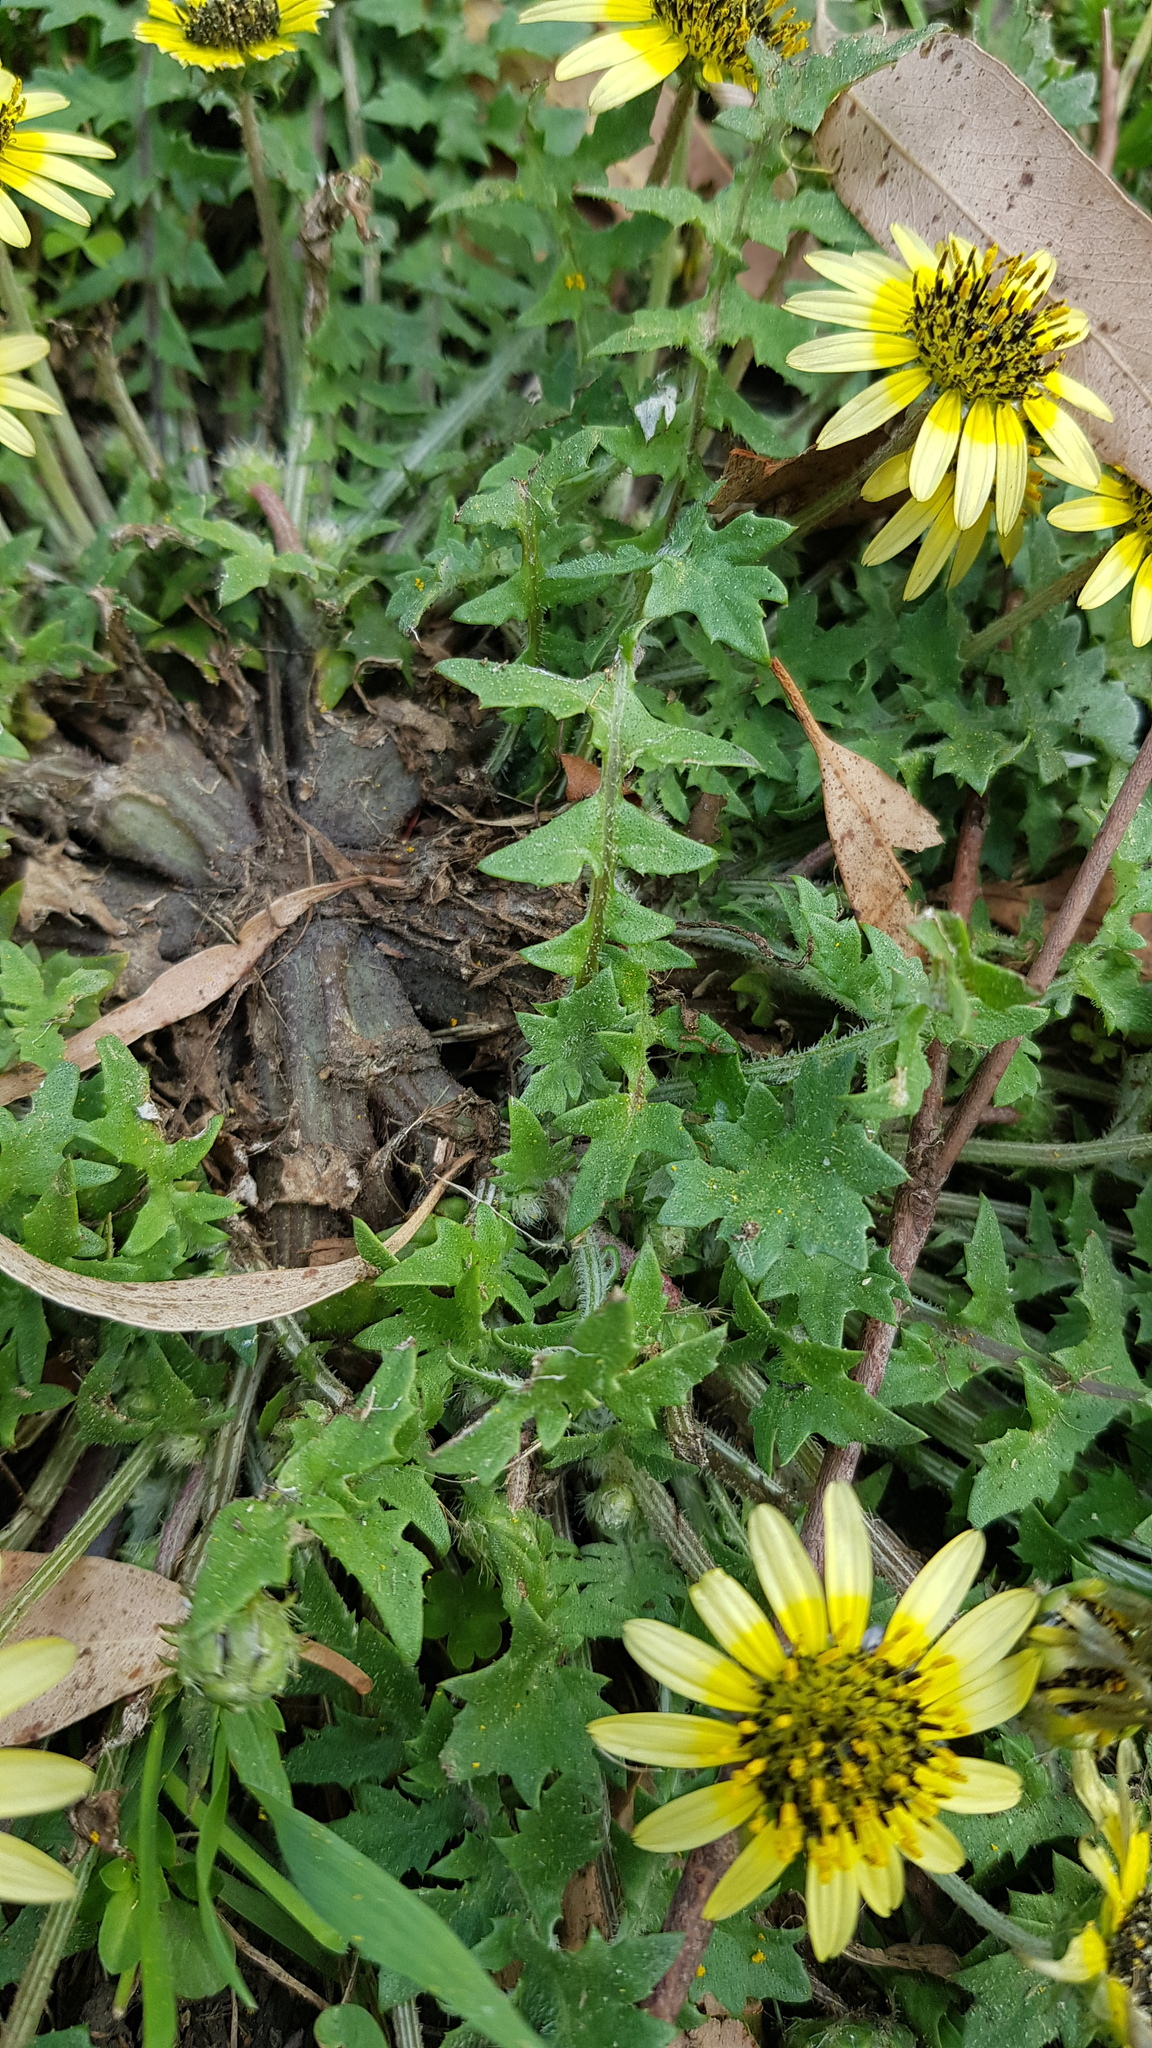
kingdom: Plantae
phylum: Tracheophyta
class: Magnoliopsida
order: Asterales
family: Asteraceae
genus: Arctotheca
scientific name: Arctotheca calendula
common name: Capeweed
